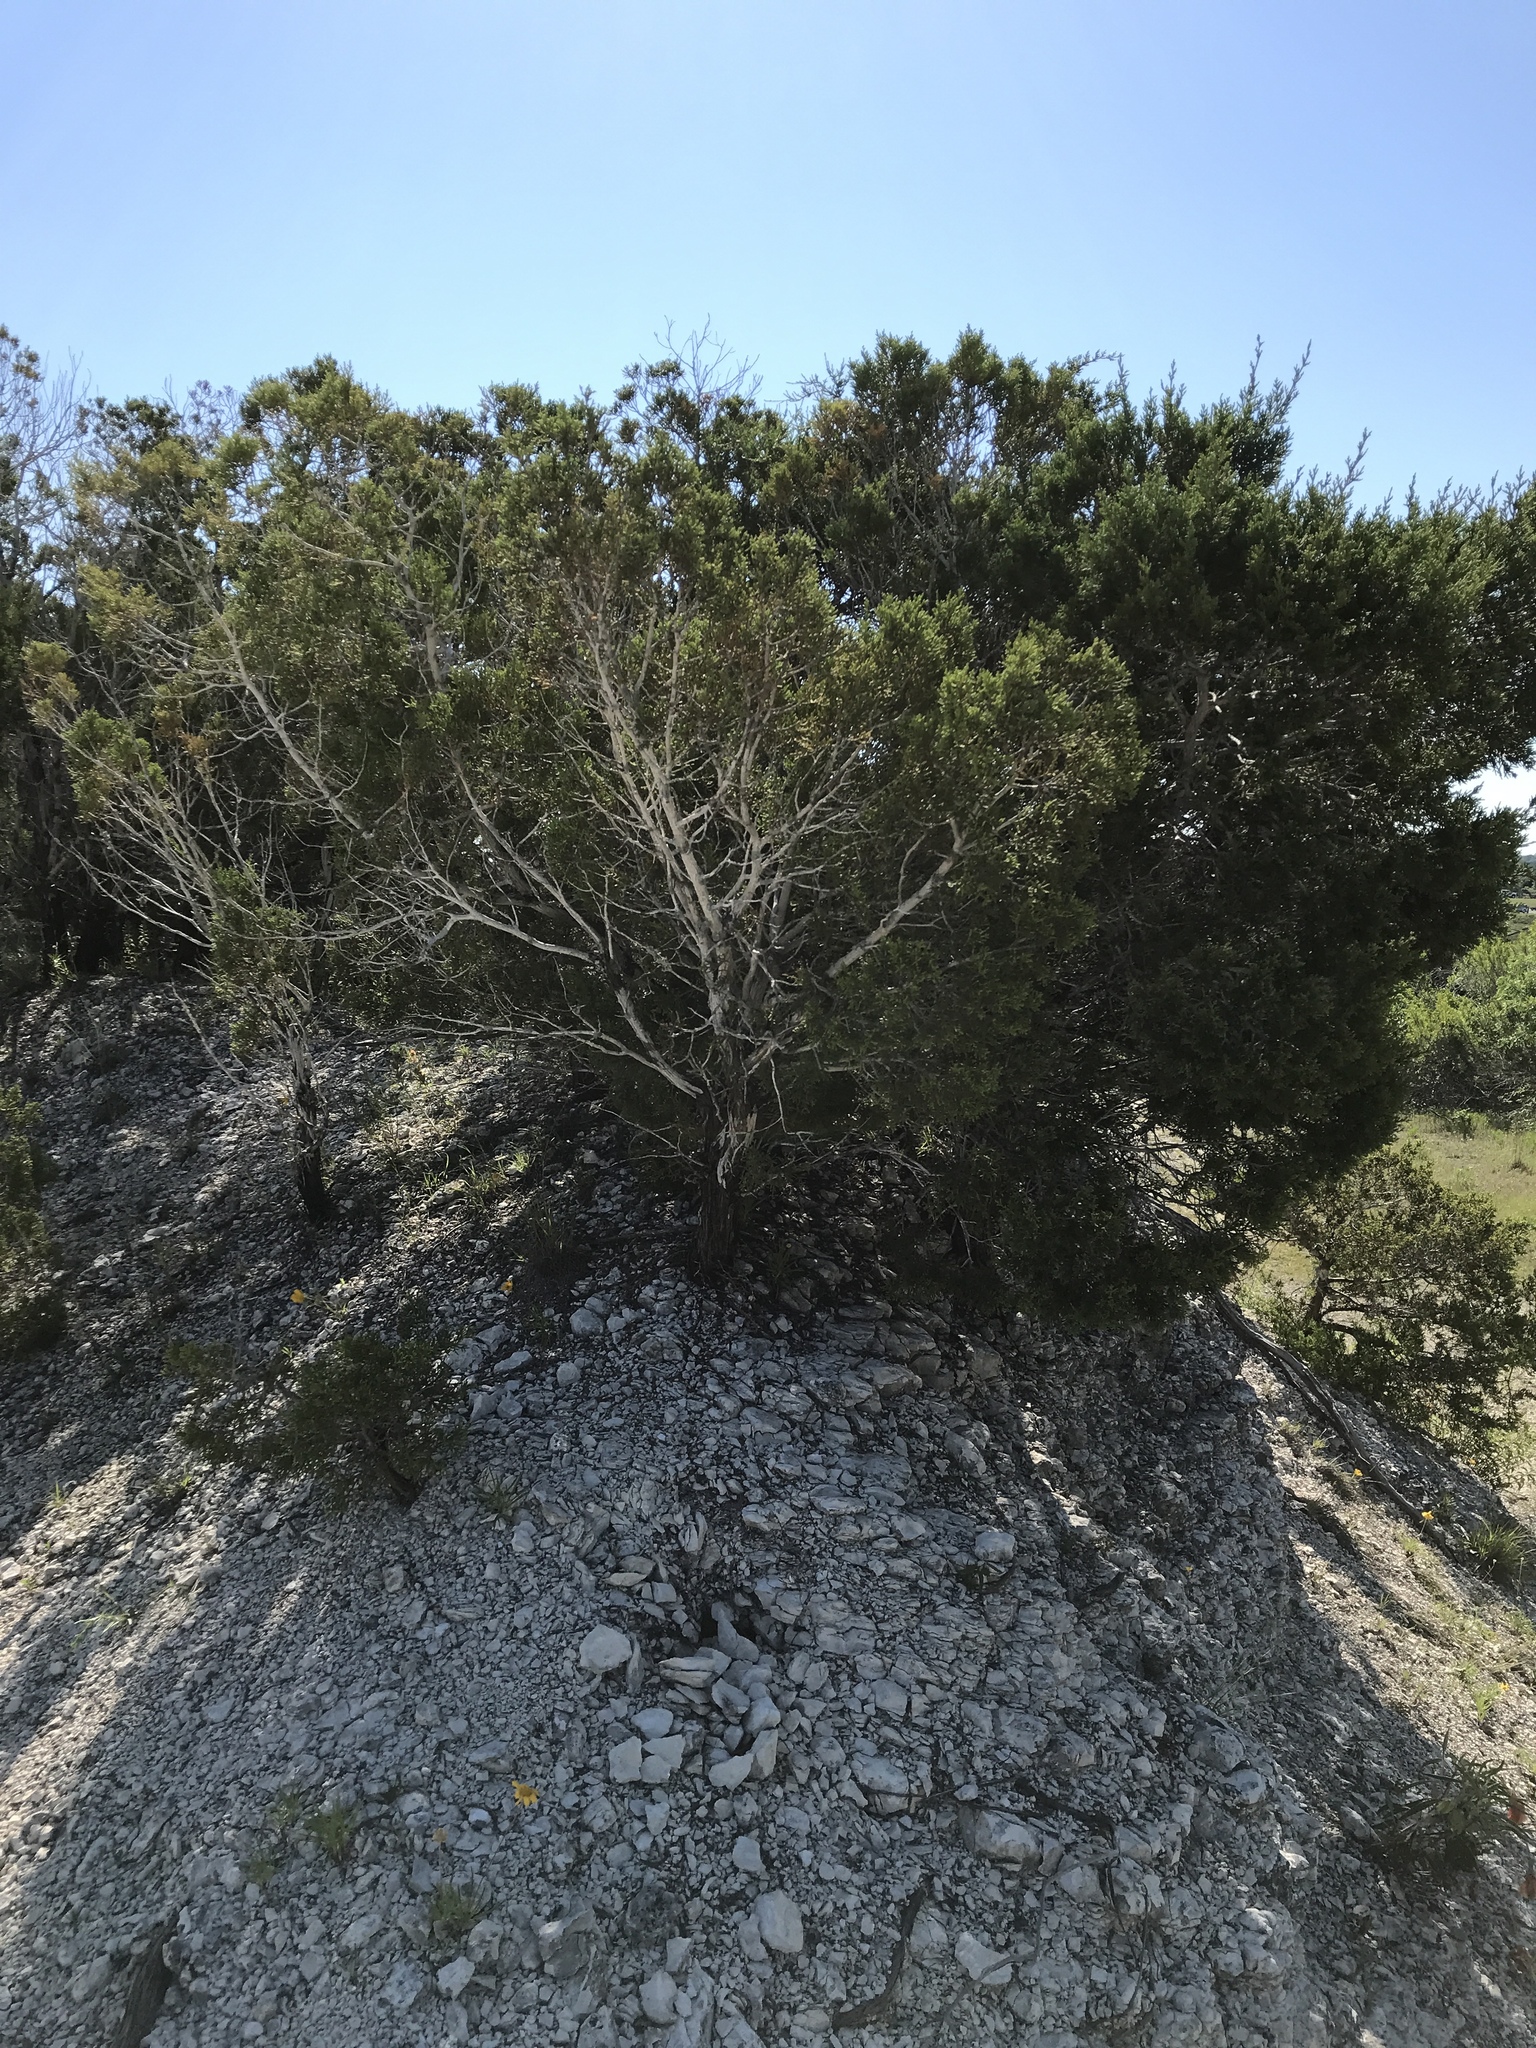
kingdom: Fungi
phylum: Ascomycota
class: Lecanoromycetes
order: Ostropales
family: Stictidaceae
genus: Robergea
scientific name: Robergea
